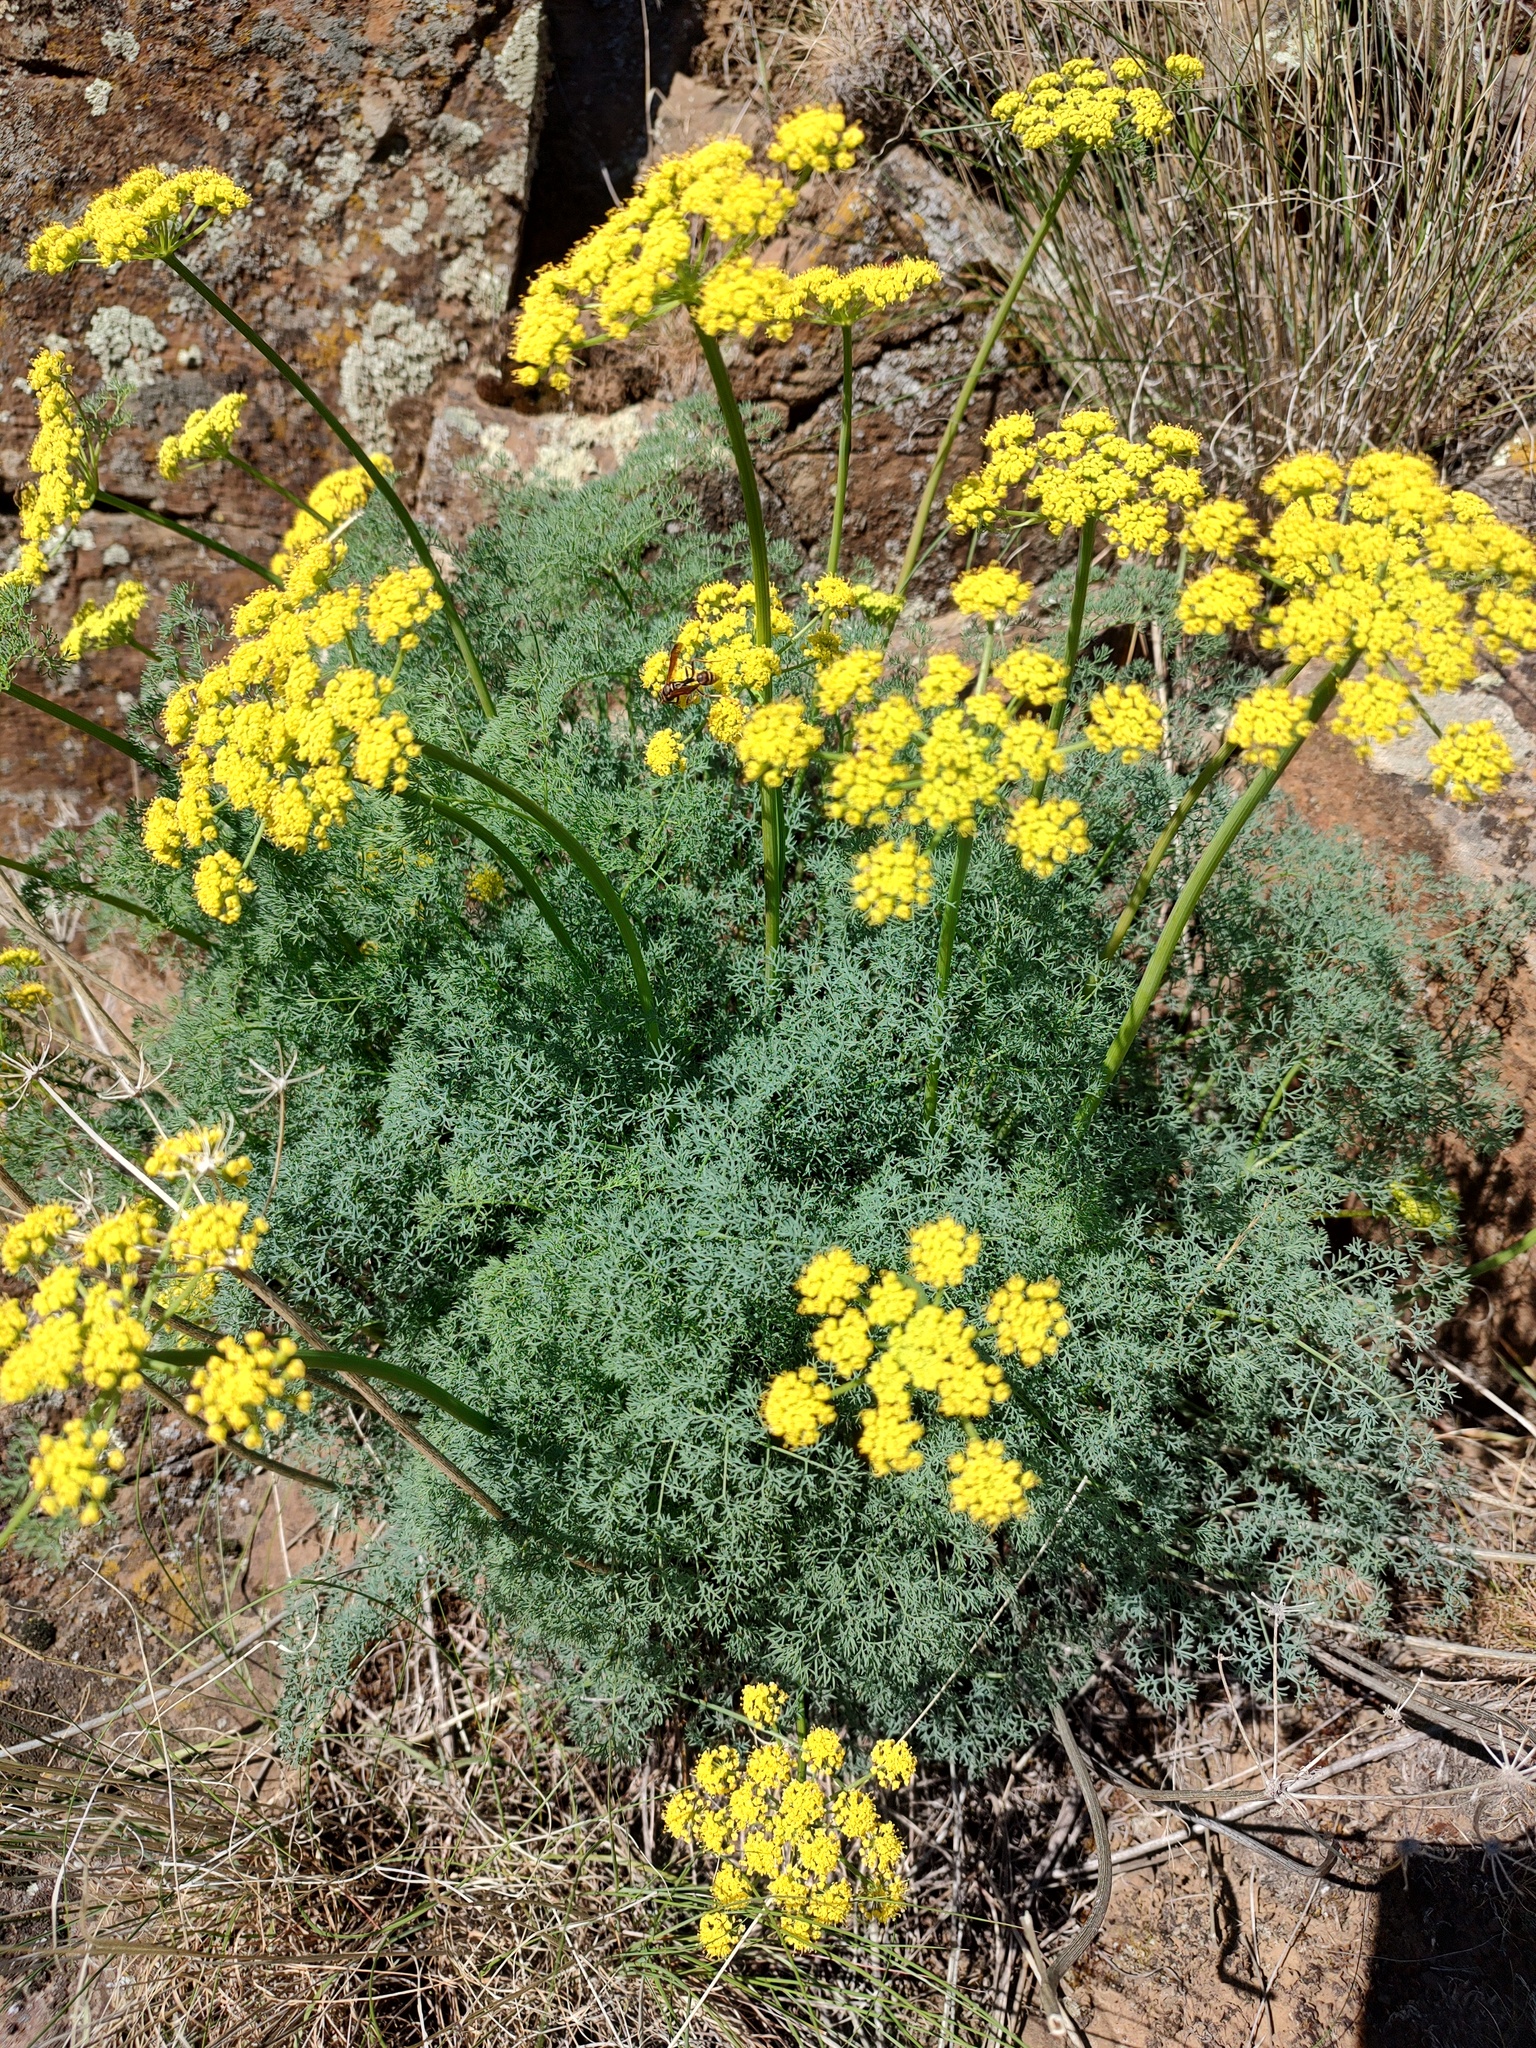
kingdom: Plantae
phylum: Tracheophyta
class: Magnoliopsida
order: Apiales
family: Apiaceae
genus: Lomatium
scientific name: Lomatium papilioniferum
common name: Butterfly lomatium
